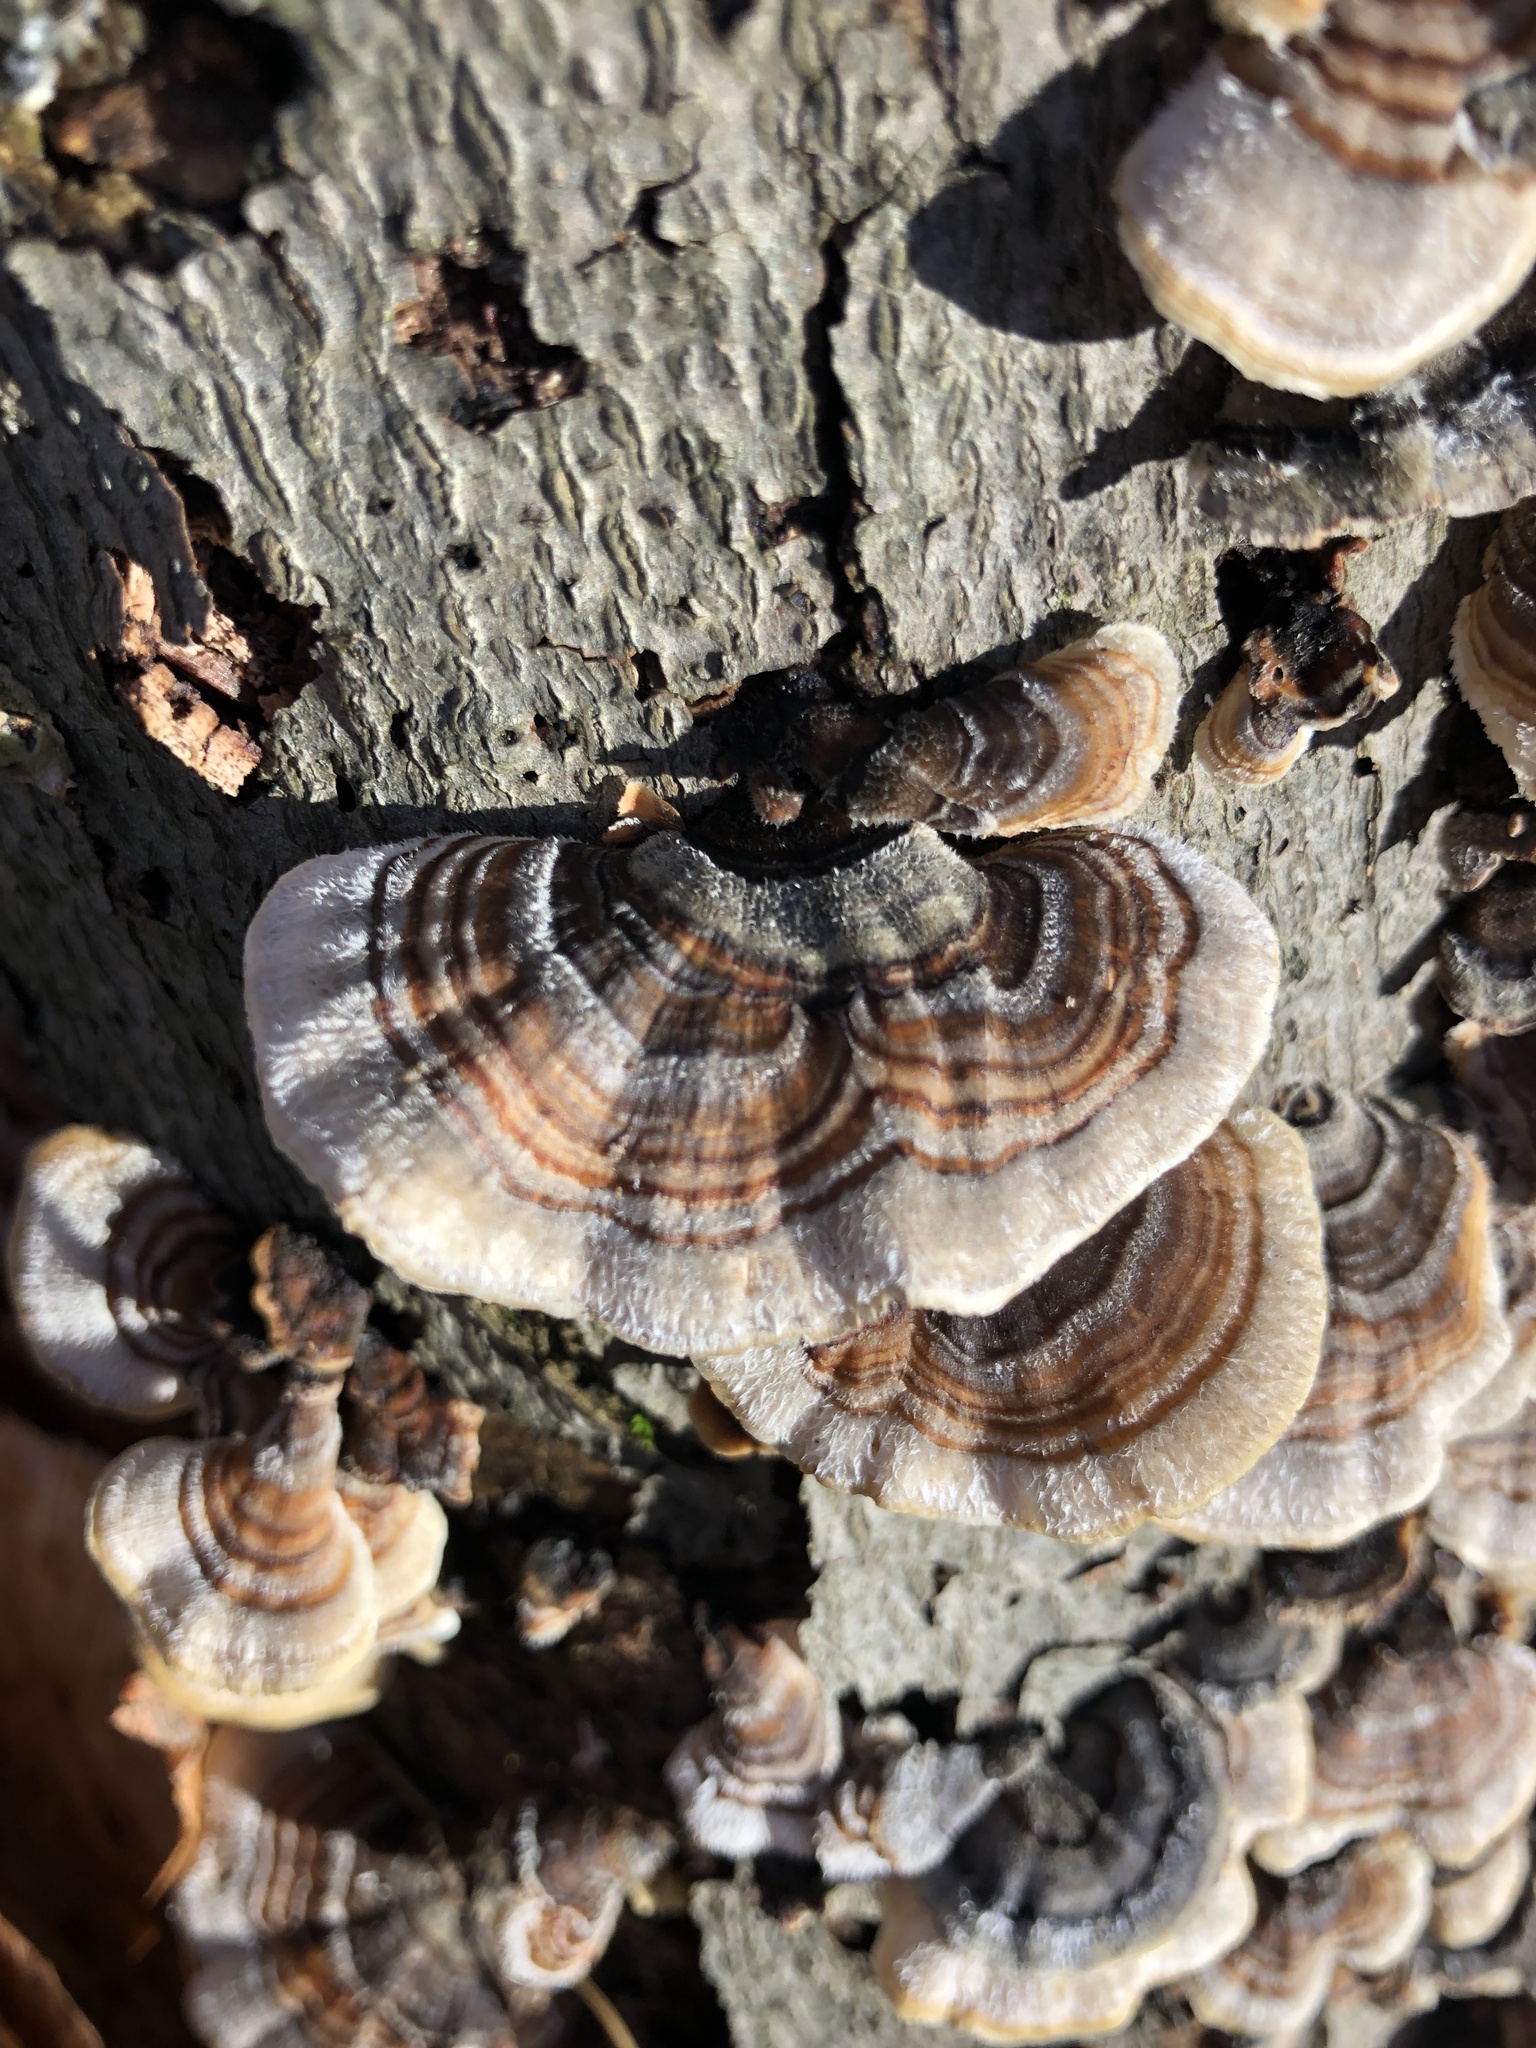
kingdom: Fungi
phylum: Basidiomycota
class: Agaricomycetes
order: Polyporales
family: Polyporaceae
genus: Trametes
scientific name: Trametes versicolor
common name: Turkeytail
